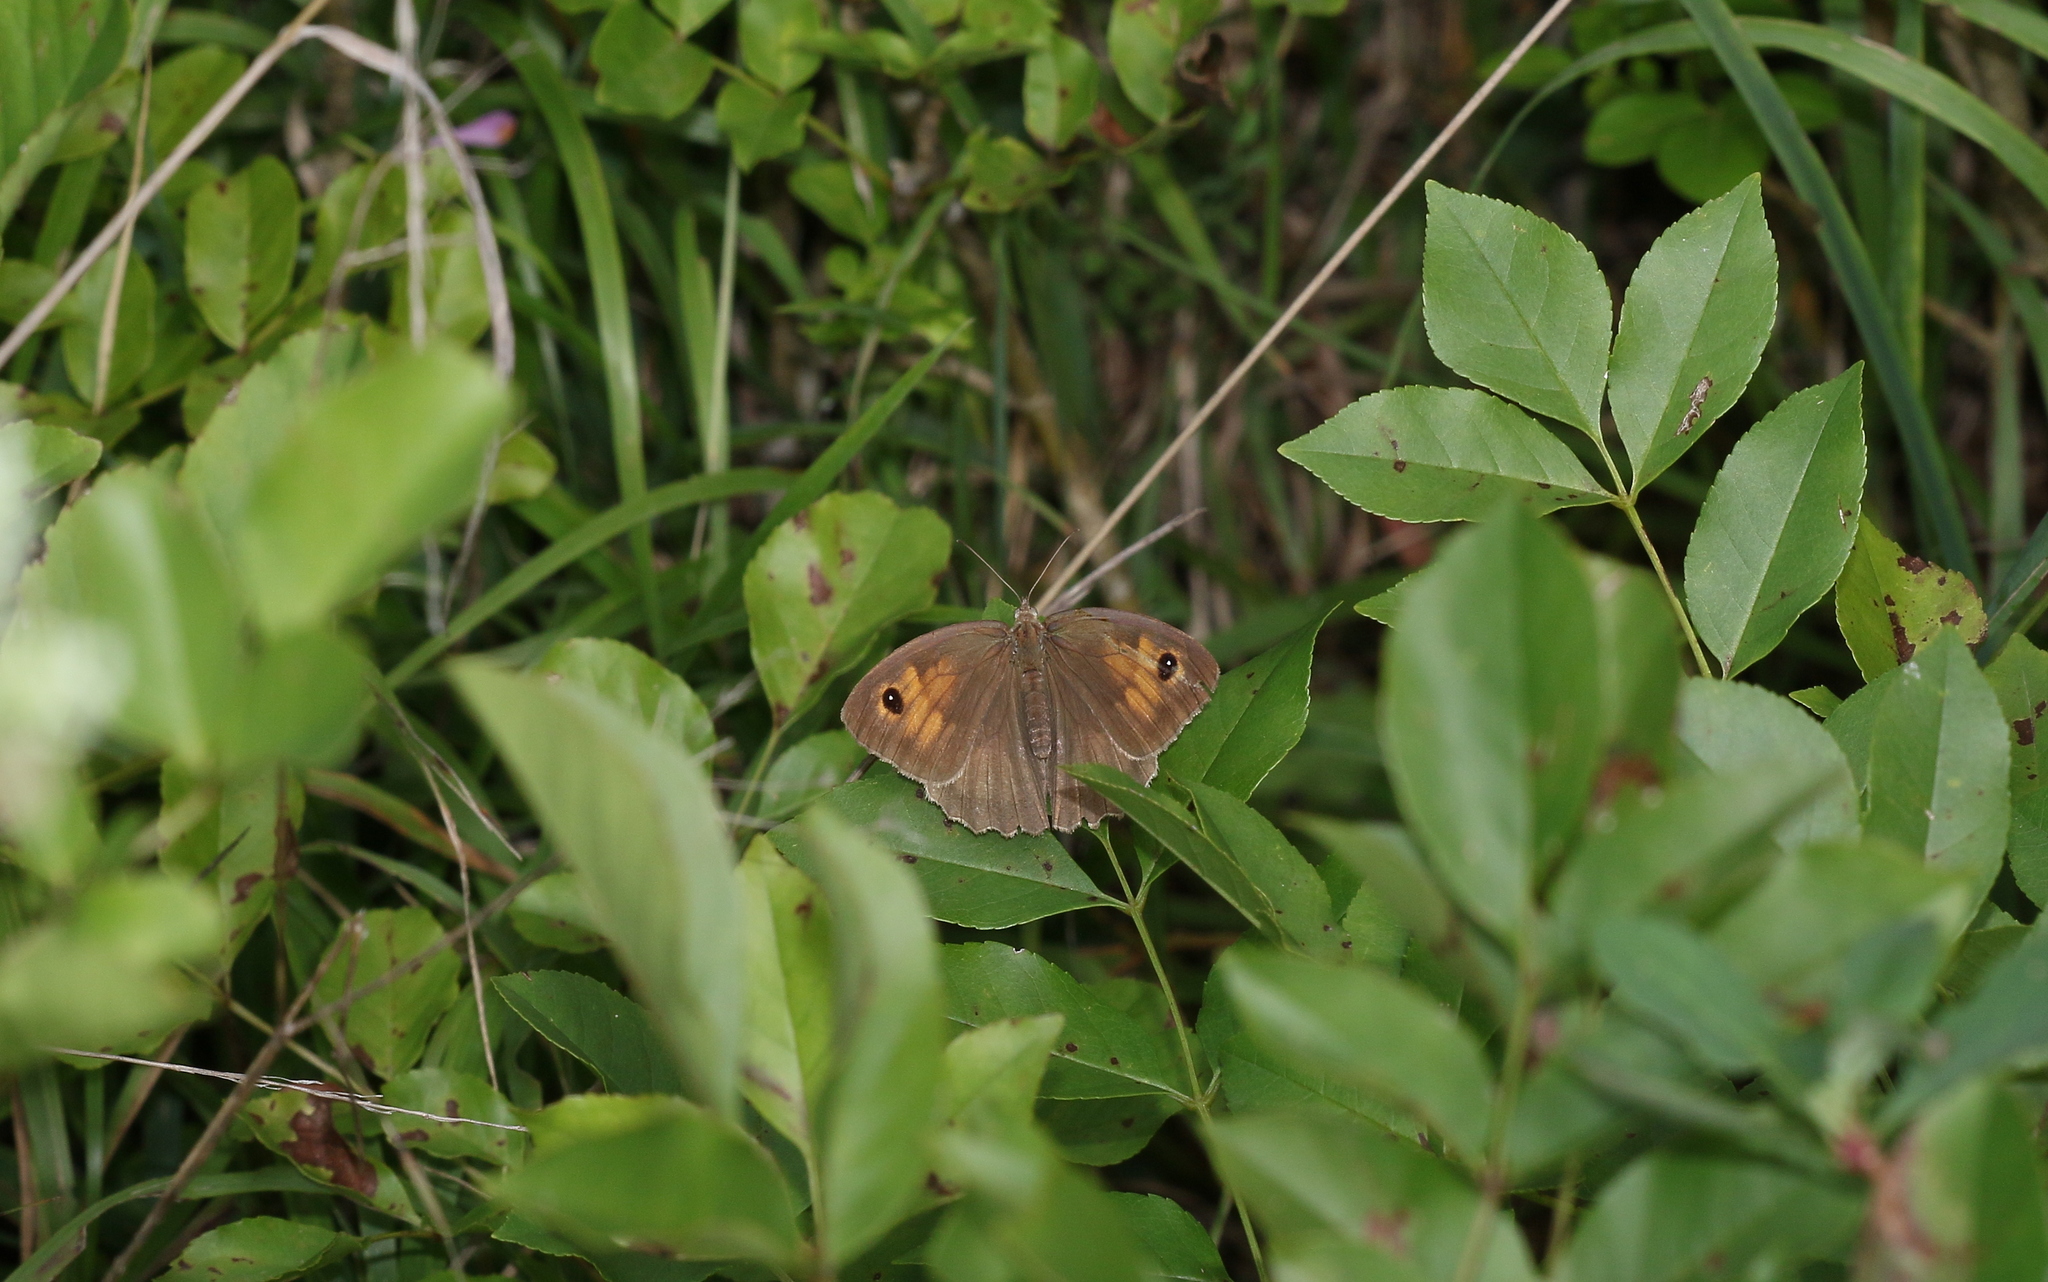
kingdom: Animalia
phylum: Arthropoda
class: Insecta
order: Lepidoptera
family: Nymphalidae
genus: Maniola
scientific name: Maniola jurtina
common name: Meadow brown
